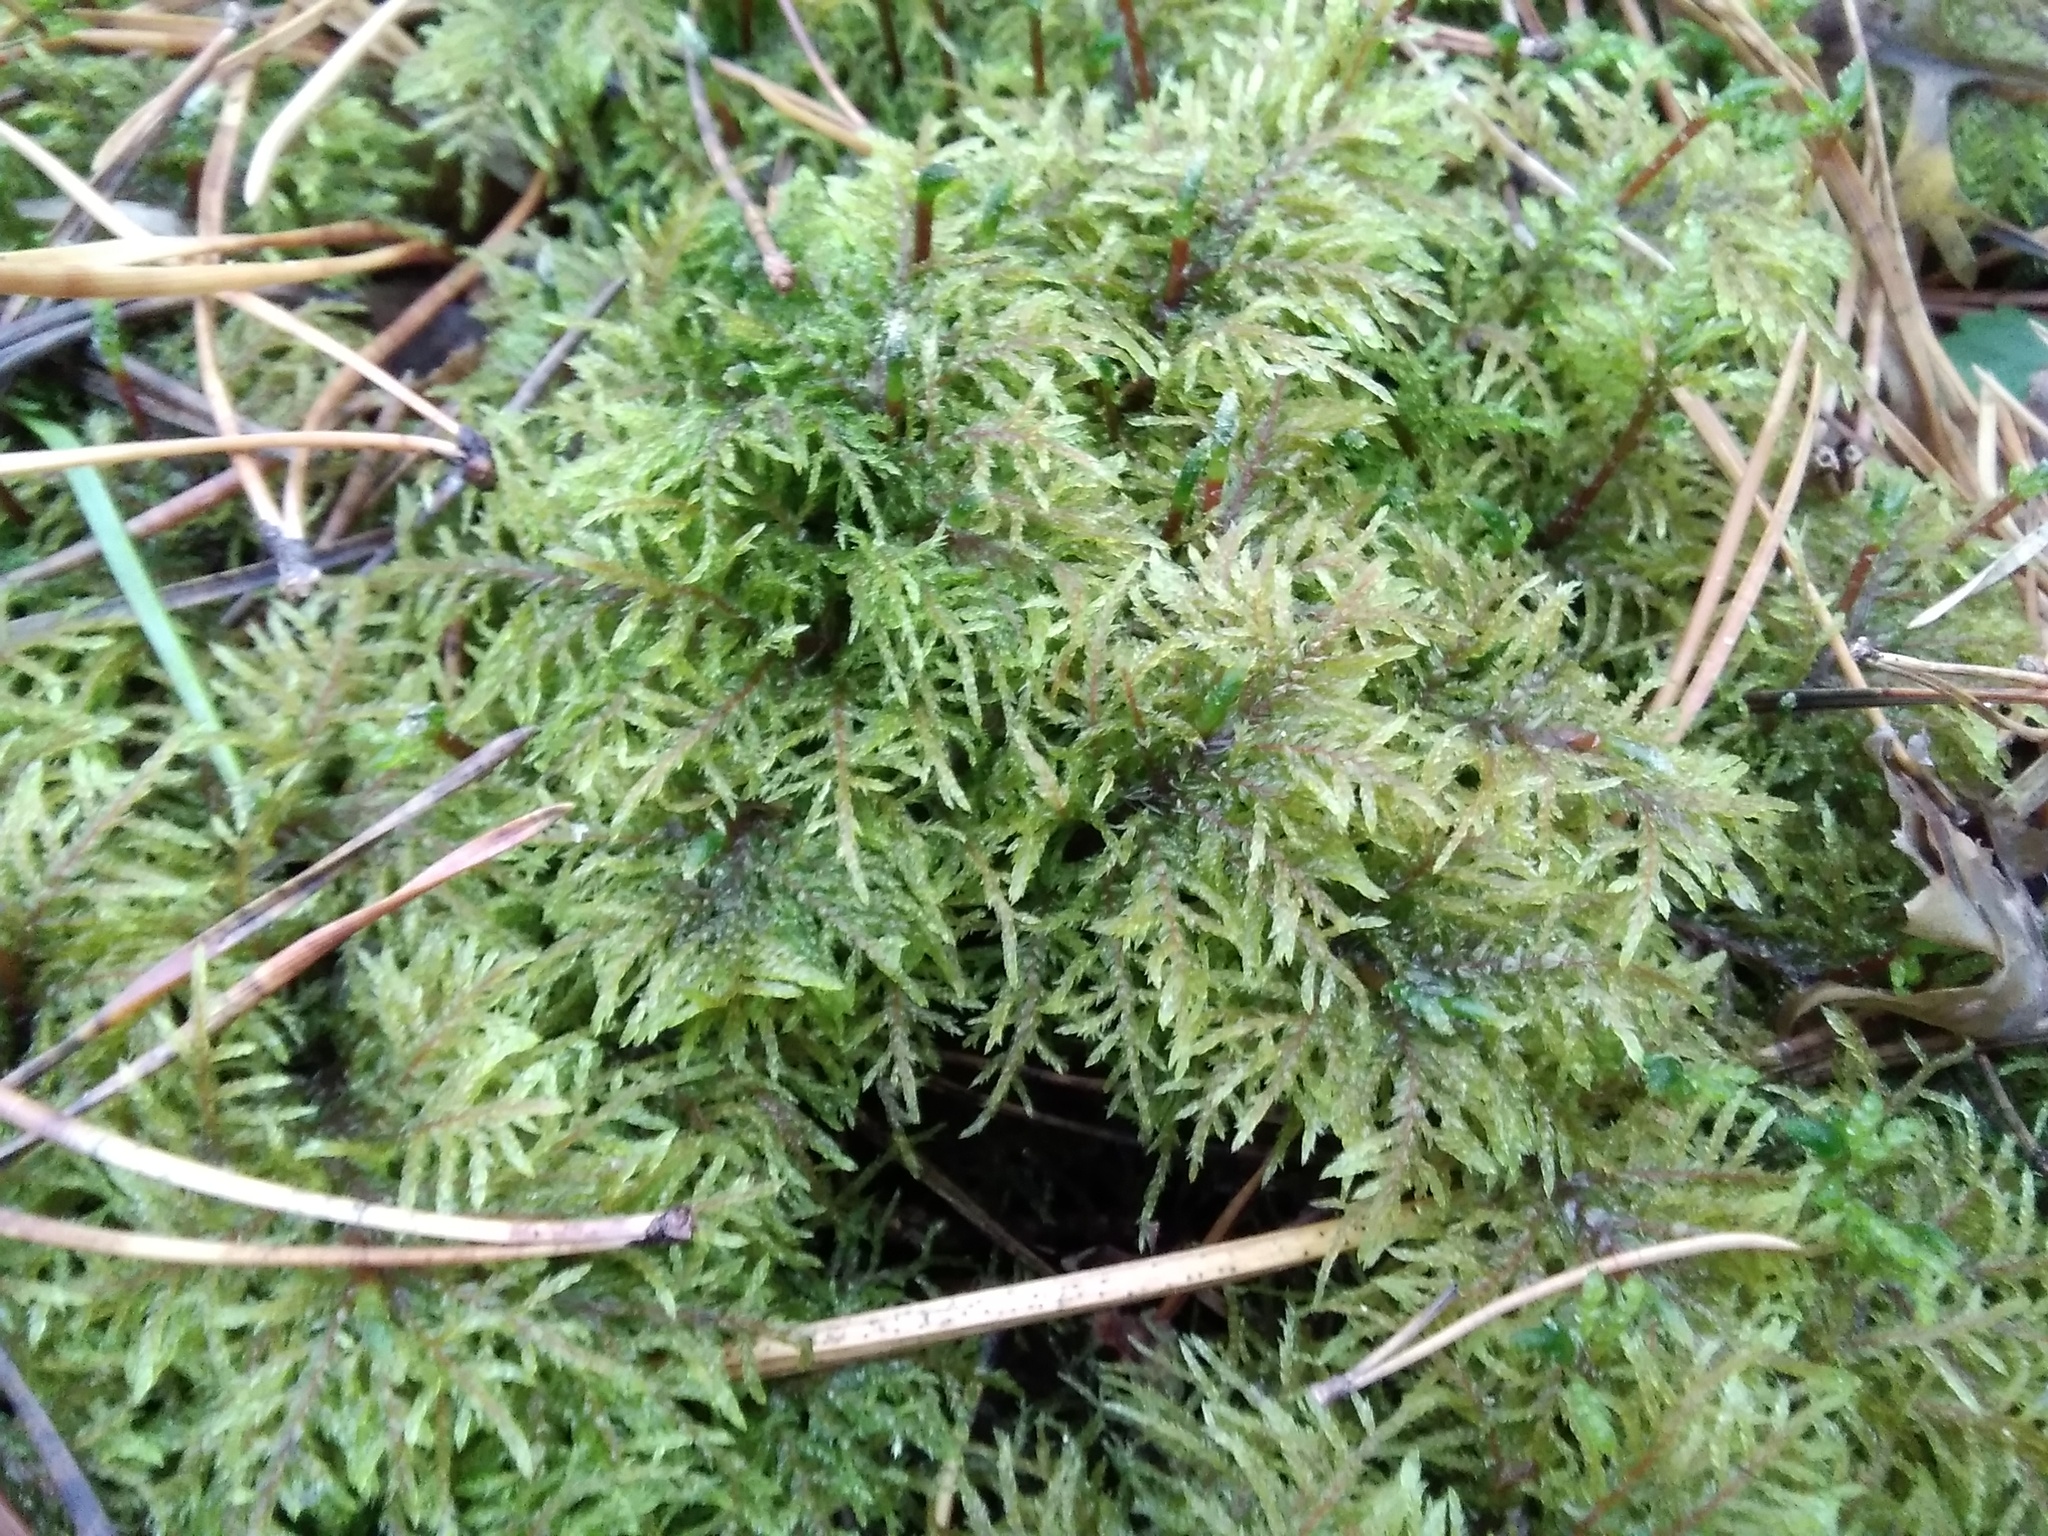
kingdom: Plantae
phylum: Bryophyta
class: Bryopsida
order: Hypnales
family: Hylocomiaceae
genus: Hylocomium
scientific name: Hylocomium splendens
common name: Stairstep moss
